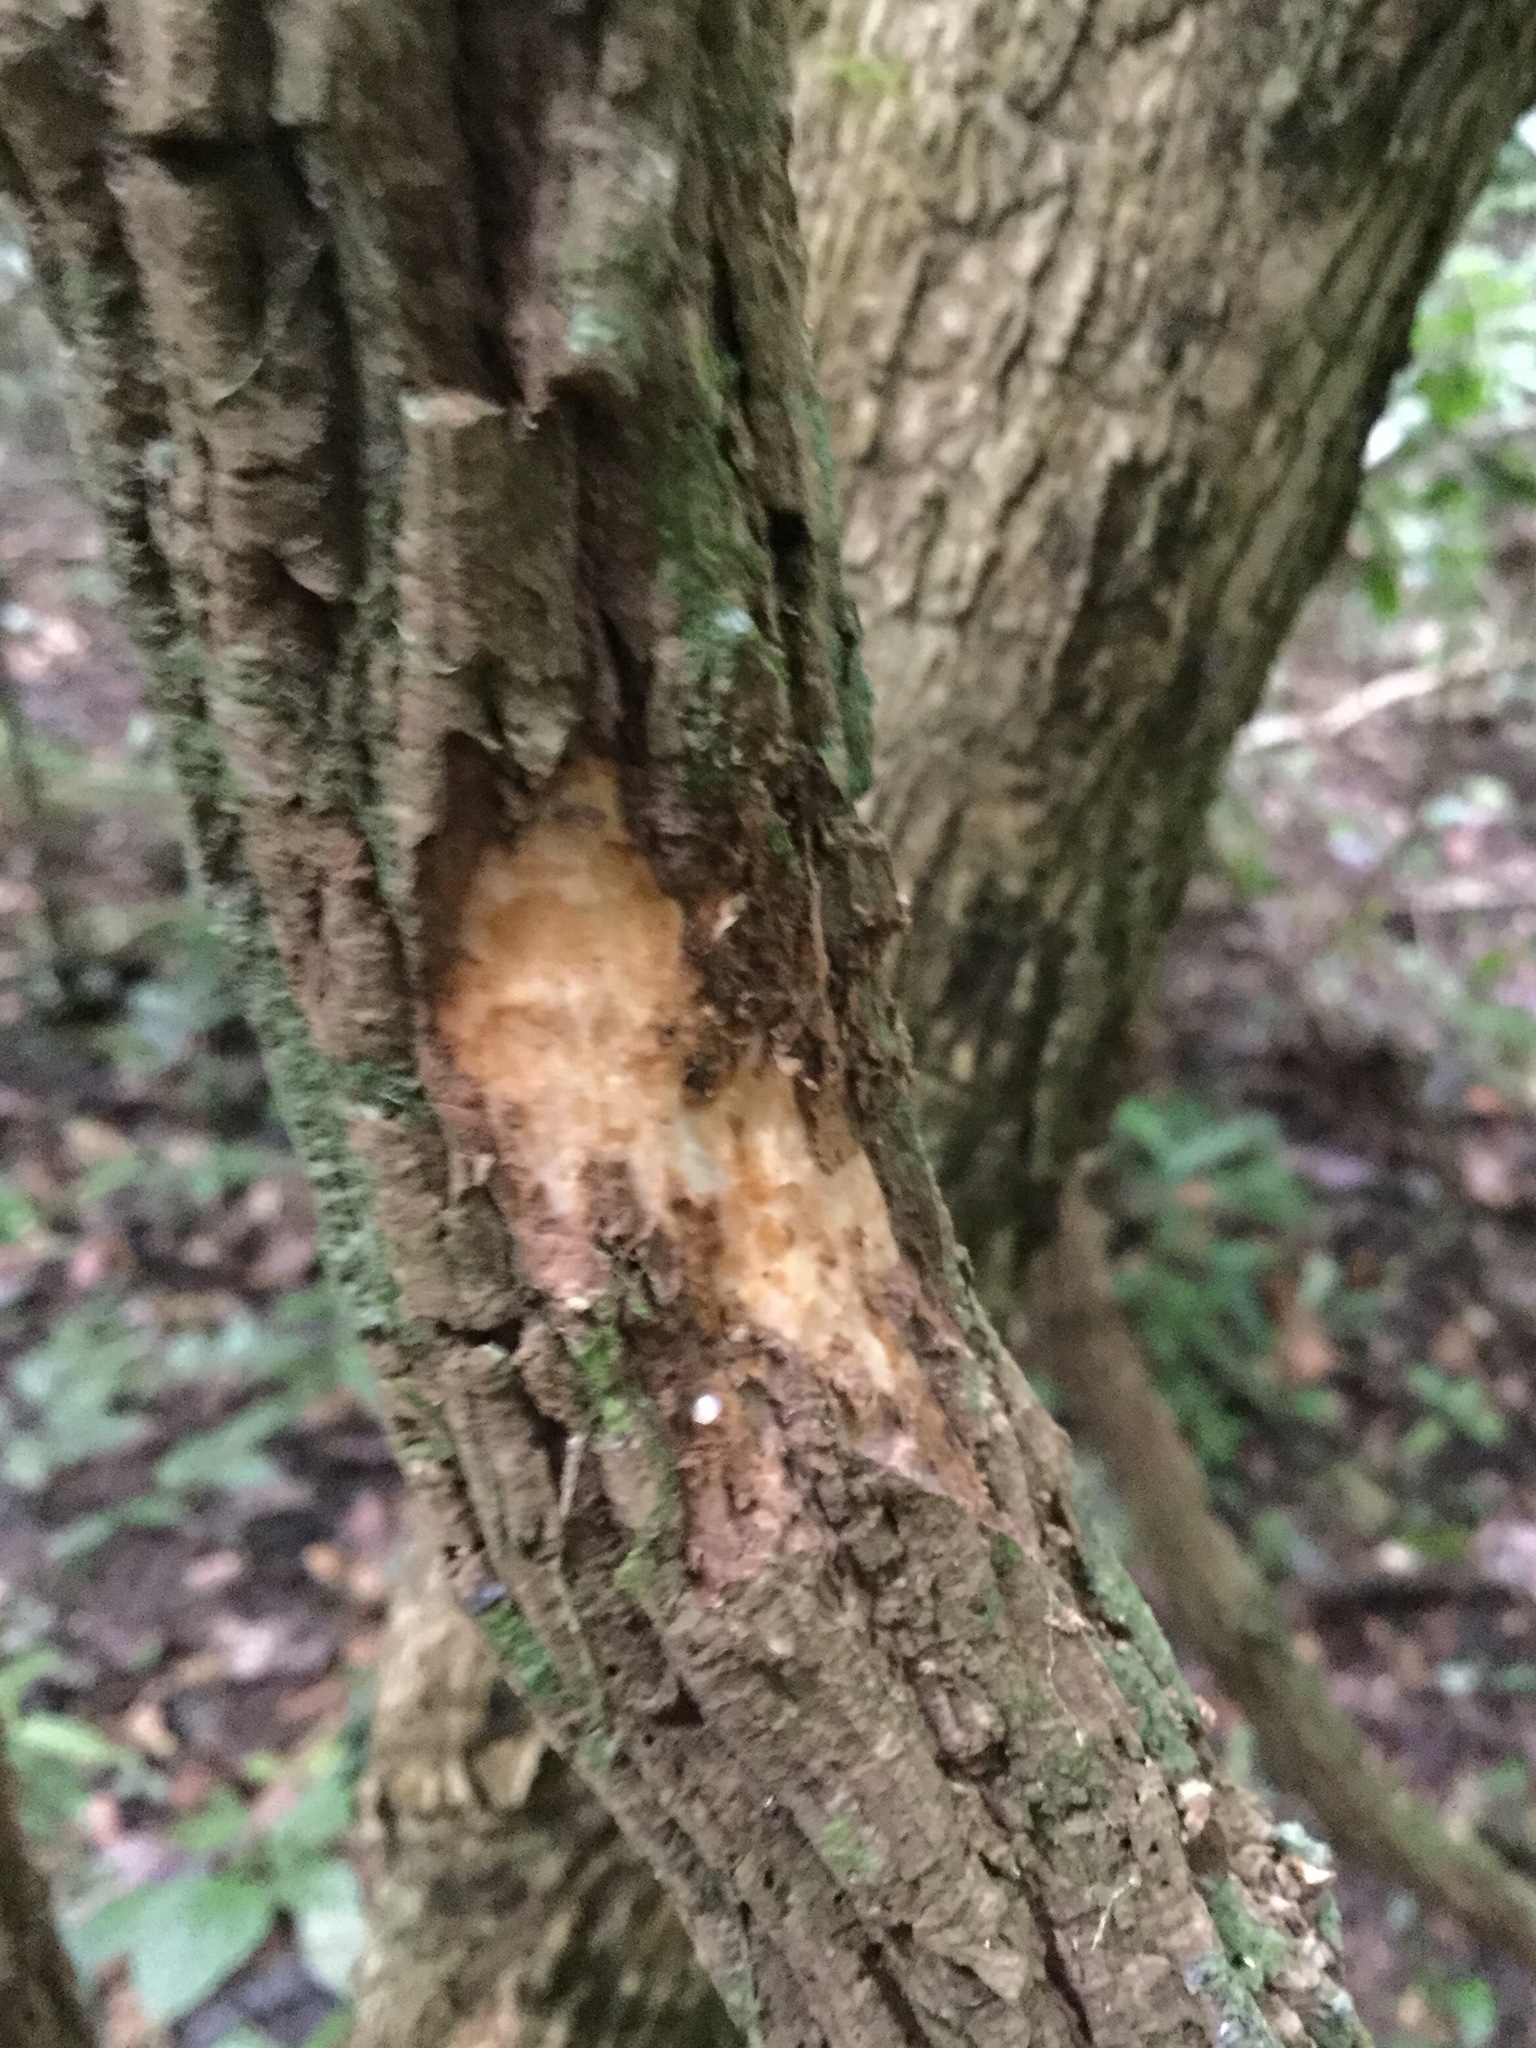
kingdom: Plantae
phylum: Tracheophyta
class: Magnoliopsida
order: Piperales
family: Aristolochiaceae
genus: Isotrema
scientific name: Isotrema paracletum
